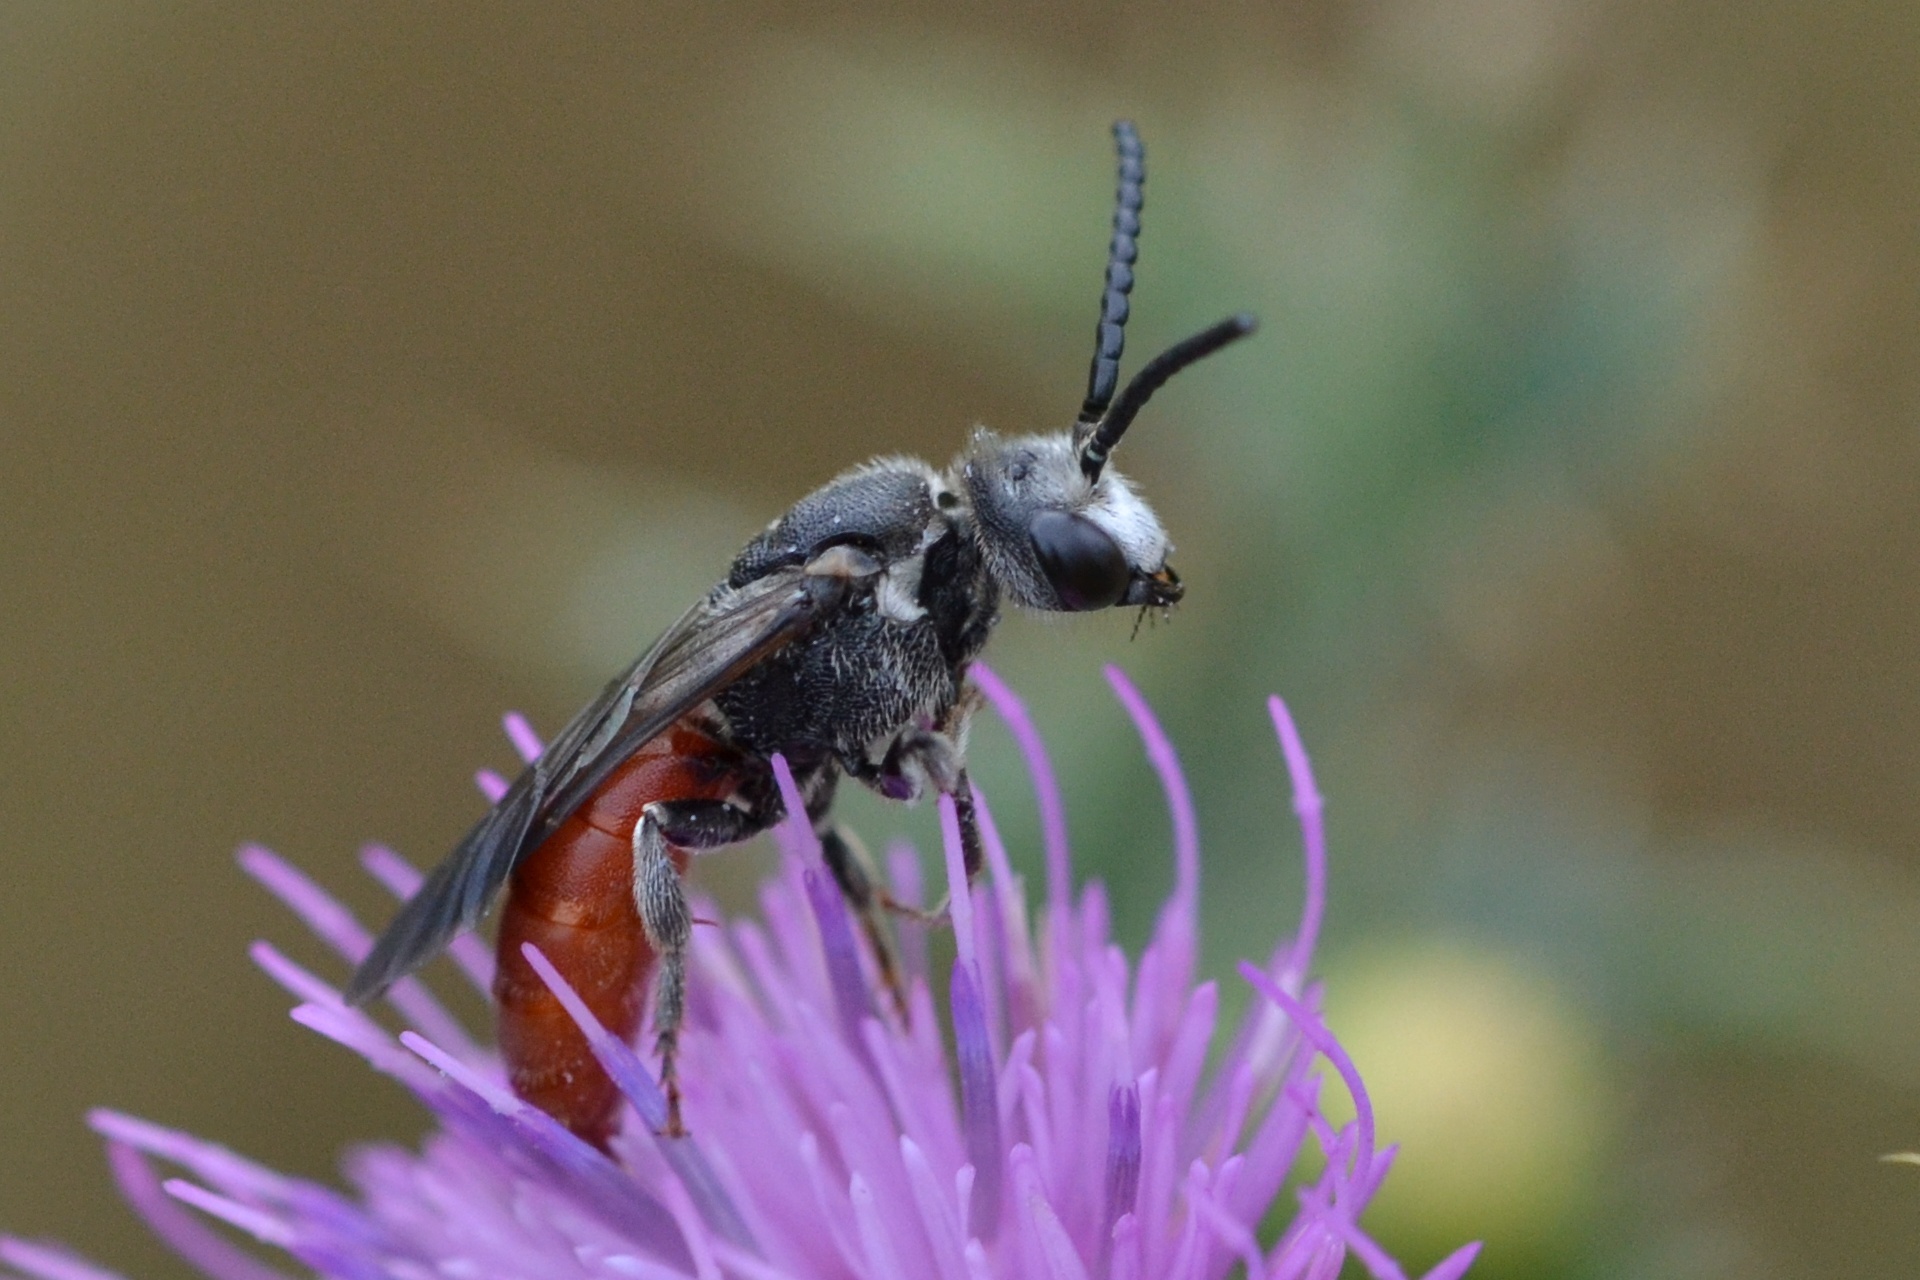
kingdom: Animalia
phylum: Arthropoda
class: Insecta
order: Hymenoptera
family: Halictidae
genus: Sphecodes
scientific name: Sphecodes albilabris
